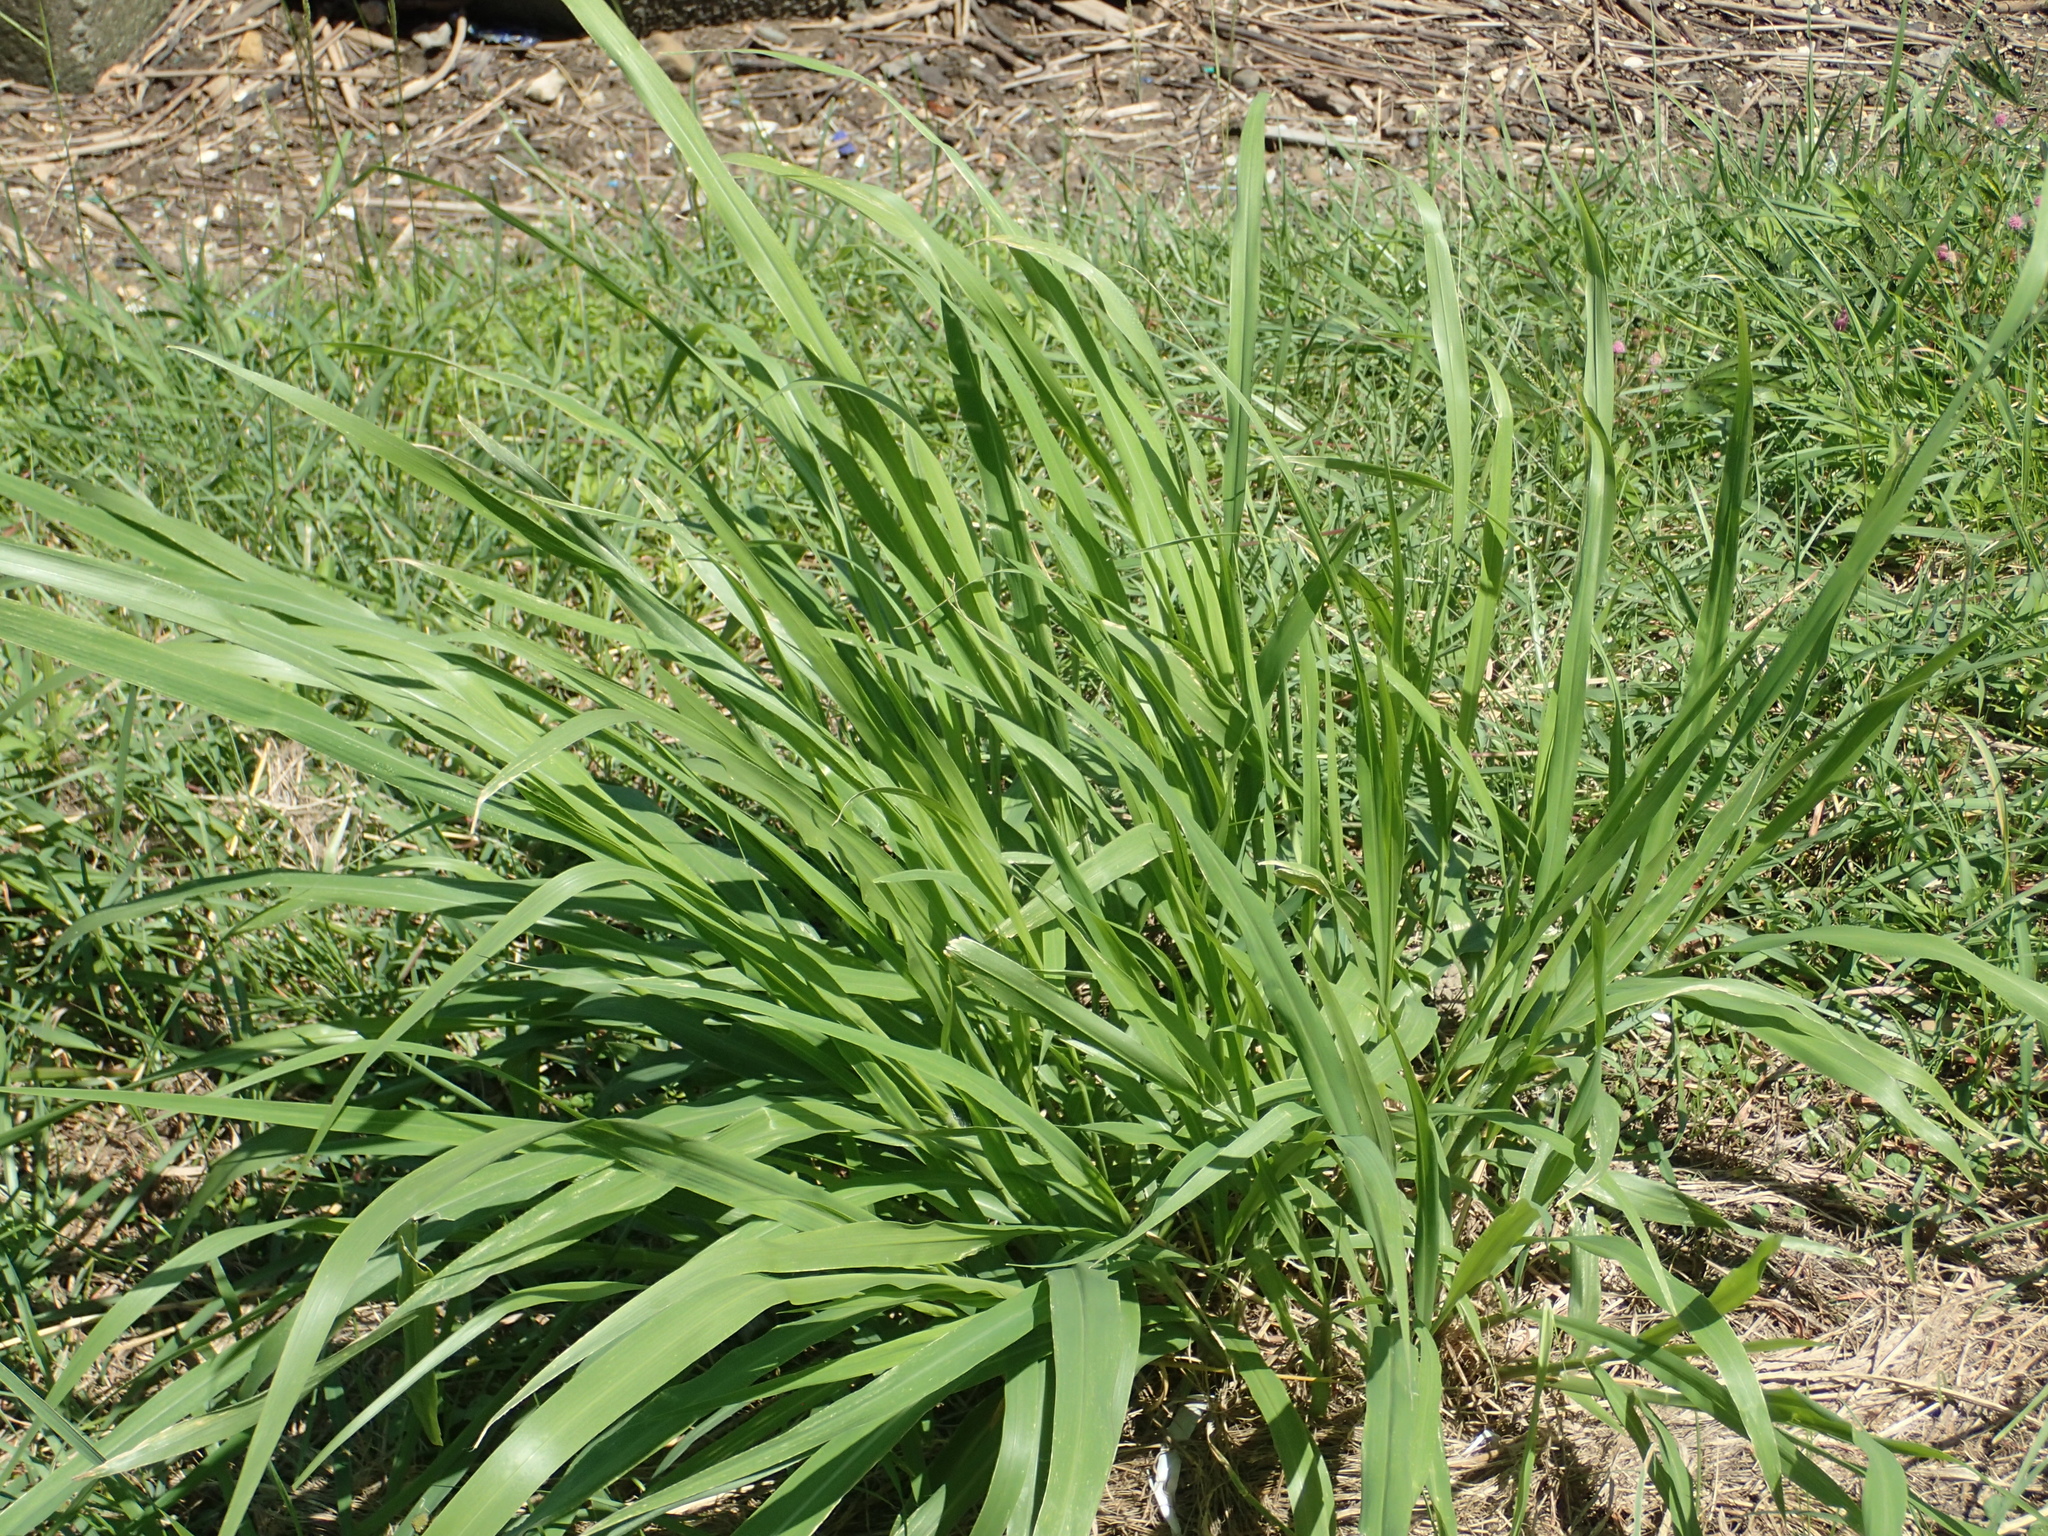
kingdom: Plantae
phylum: Tracheophyta
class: Liliopsida
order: Poales
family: Poaceae
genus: Megathyrsus
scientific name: Megathyrsus maximus
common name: Guineagrass
